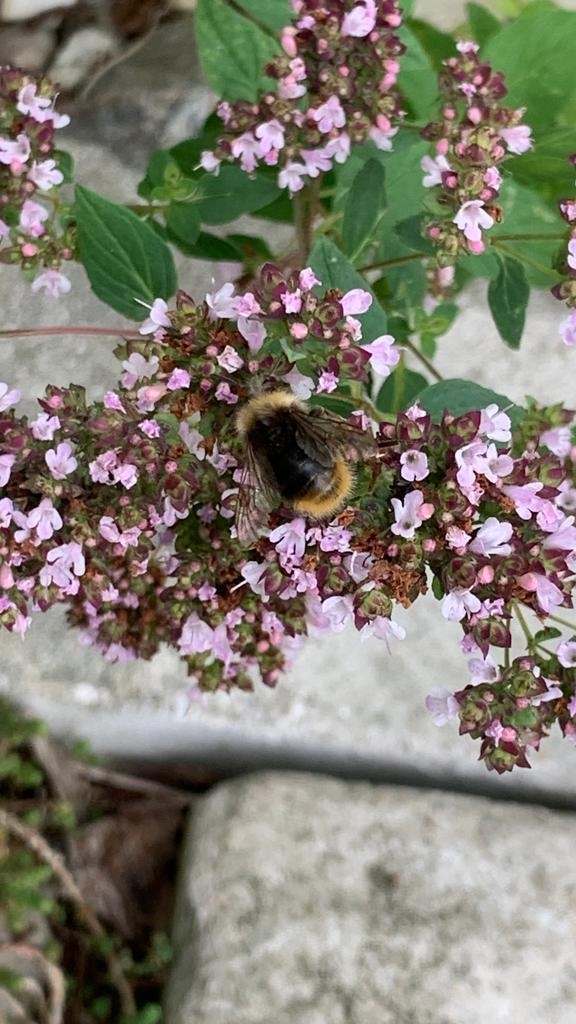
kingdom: Animalia
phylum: Arthropoda
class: Insecta
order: Hymenoptera
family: Apidae
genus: Bombus
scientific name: Bombus pratorum
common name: Early humble-bee
